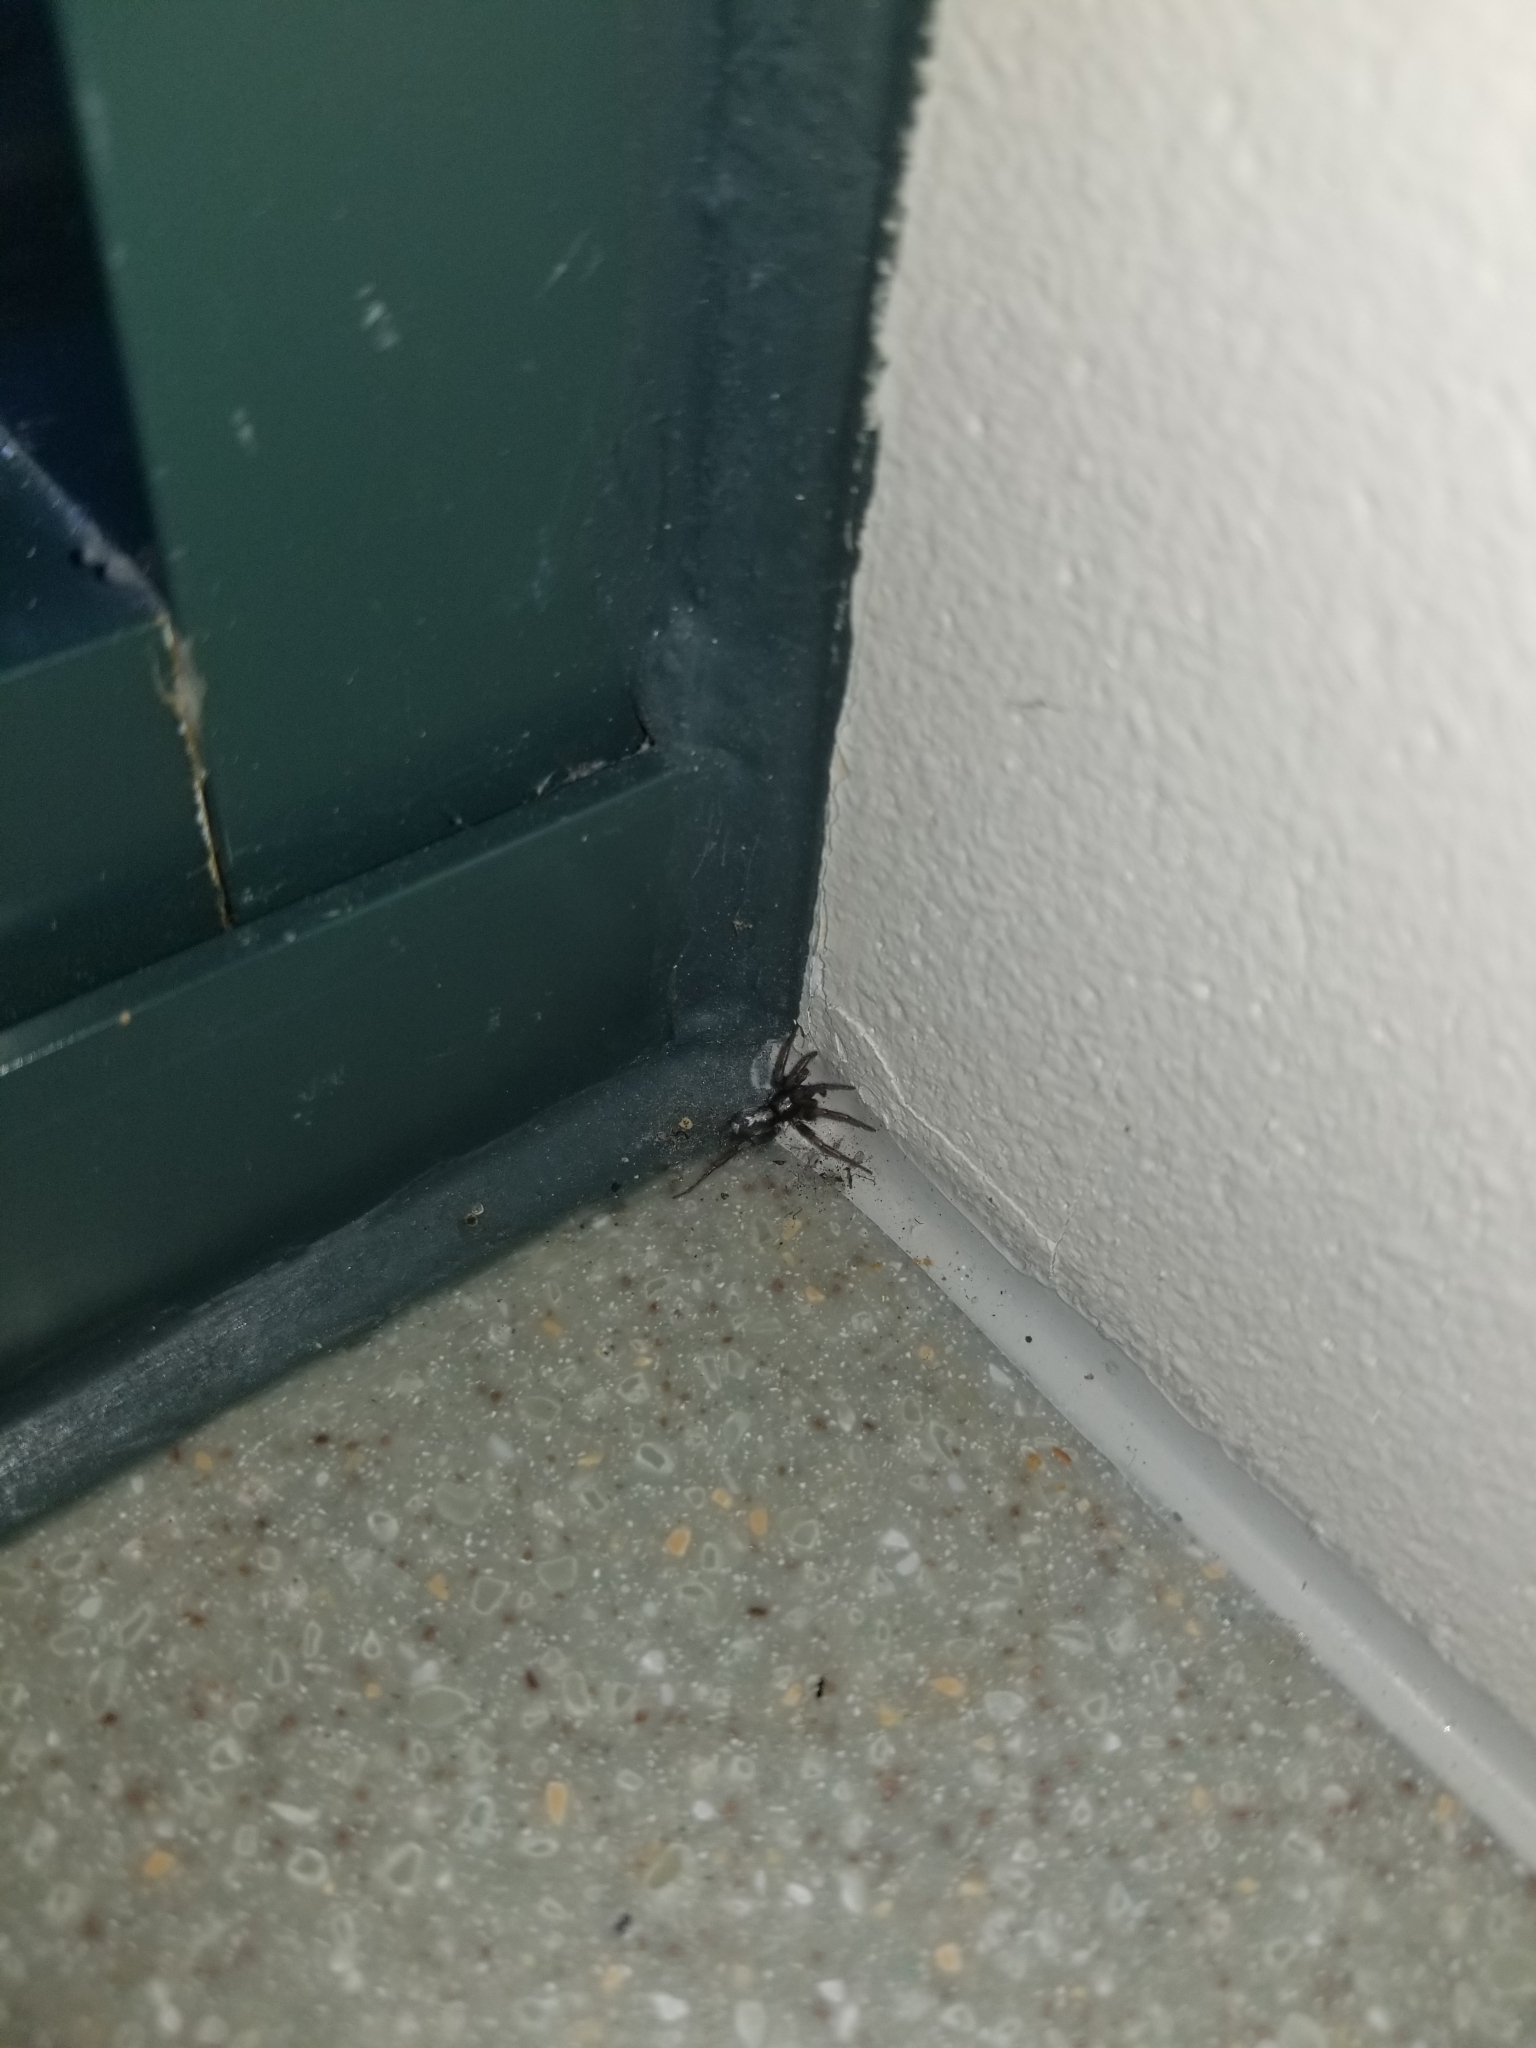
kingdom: Animalia
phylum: Arthropoda
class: Arachnida
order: Araneae
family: Gnaphosidae
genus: Herpyllus
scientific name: Herpyllus ecclesiasticus
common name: Eastern parson spider
